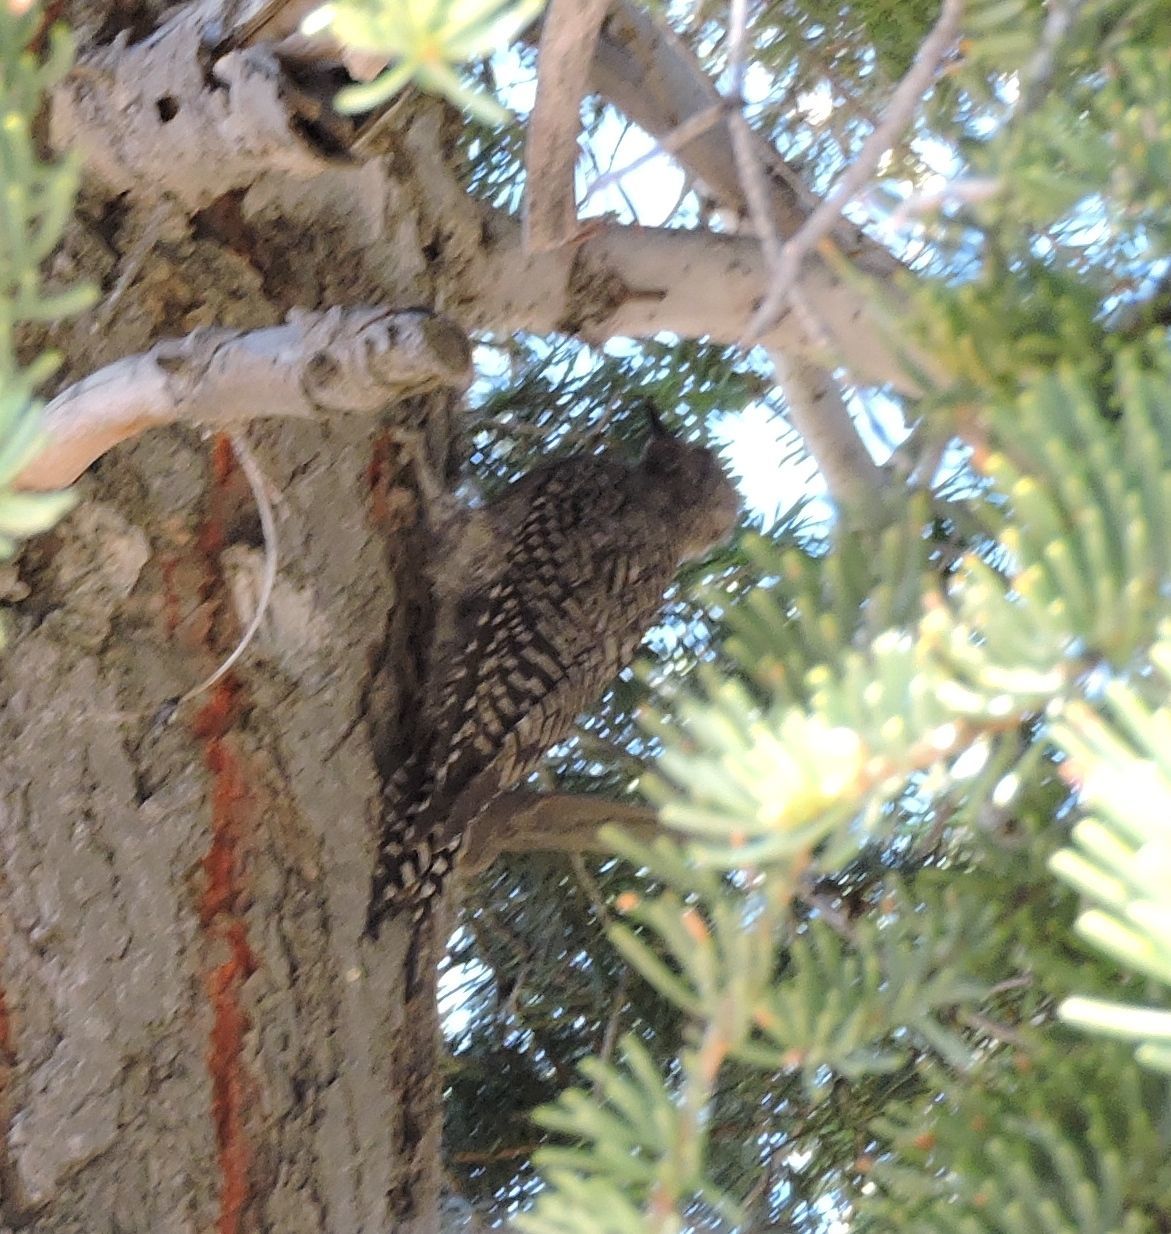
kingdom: Animalia
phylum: Chordata
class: Aves
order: Piciformes
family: Picidae
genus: Sphyrapicus
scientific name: Sphyrapicus thyroideus
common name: Williamson's sapsucker
